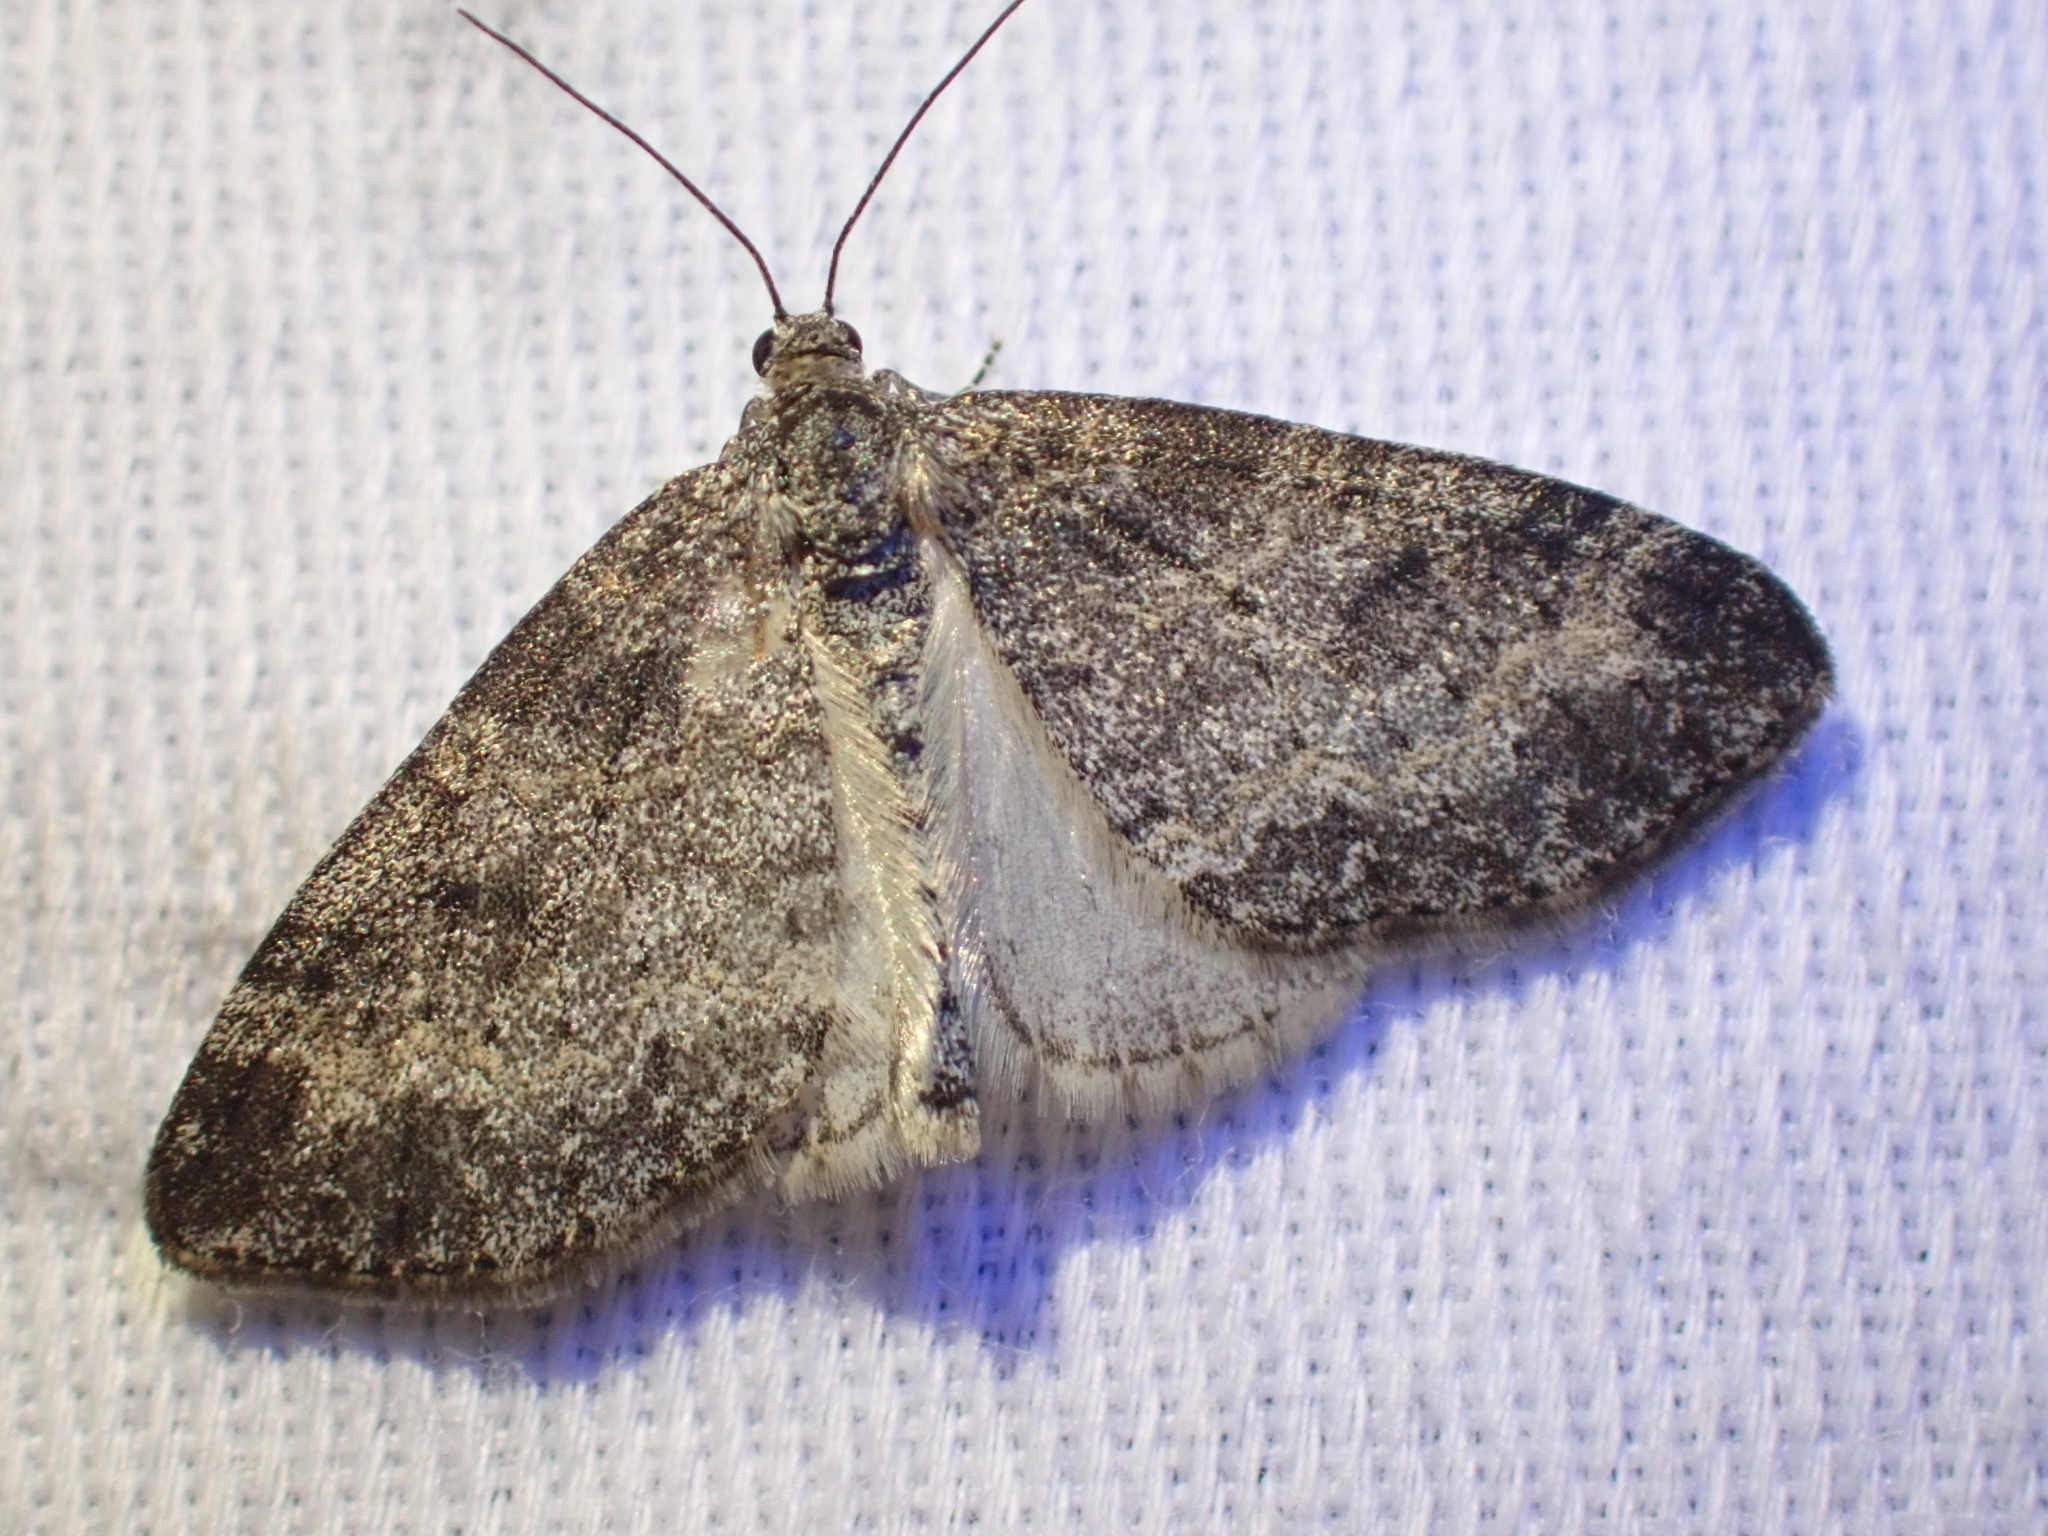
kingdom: Animalia
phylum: Arthropoda
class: Insecta
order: Lepidoptera
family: Geometridae
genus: Lobophora
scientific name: Lobophora nivigerata
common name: Powdered bigwing
